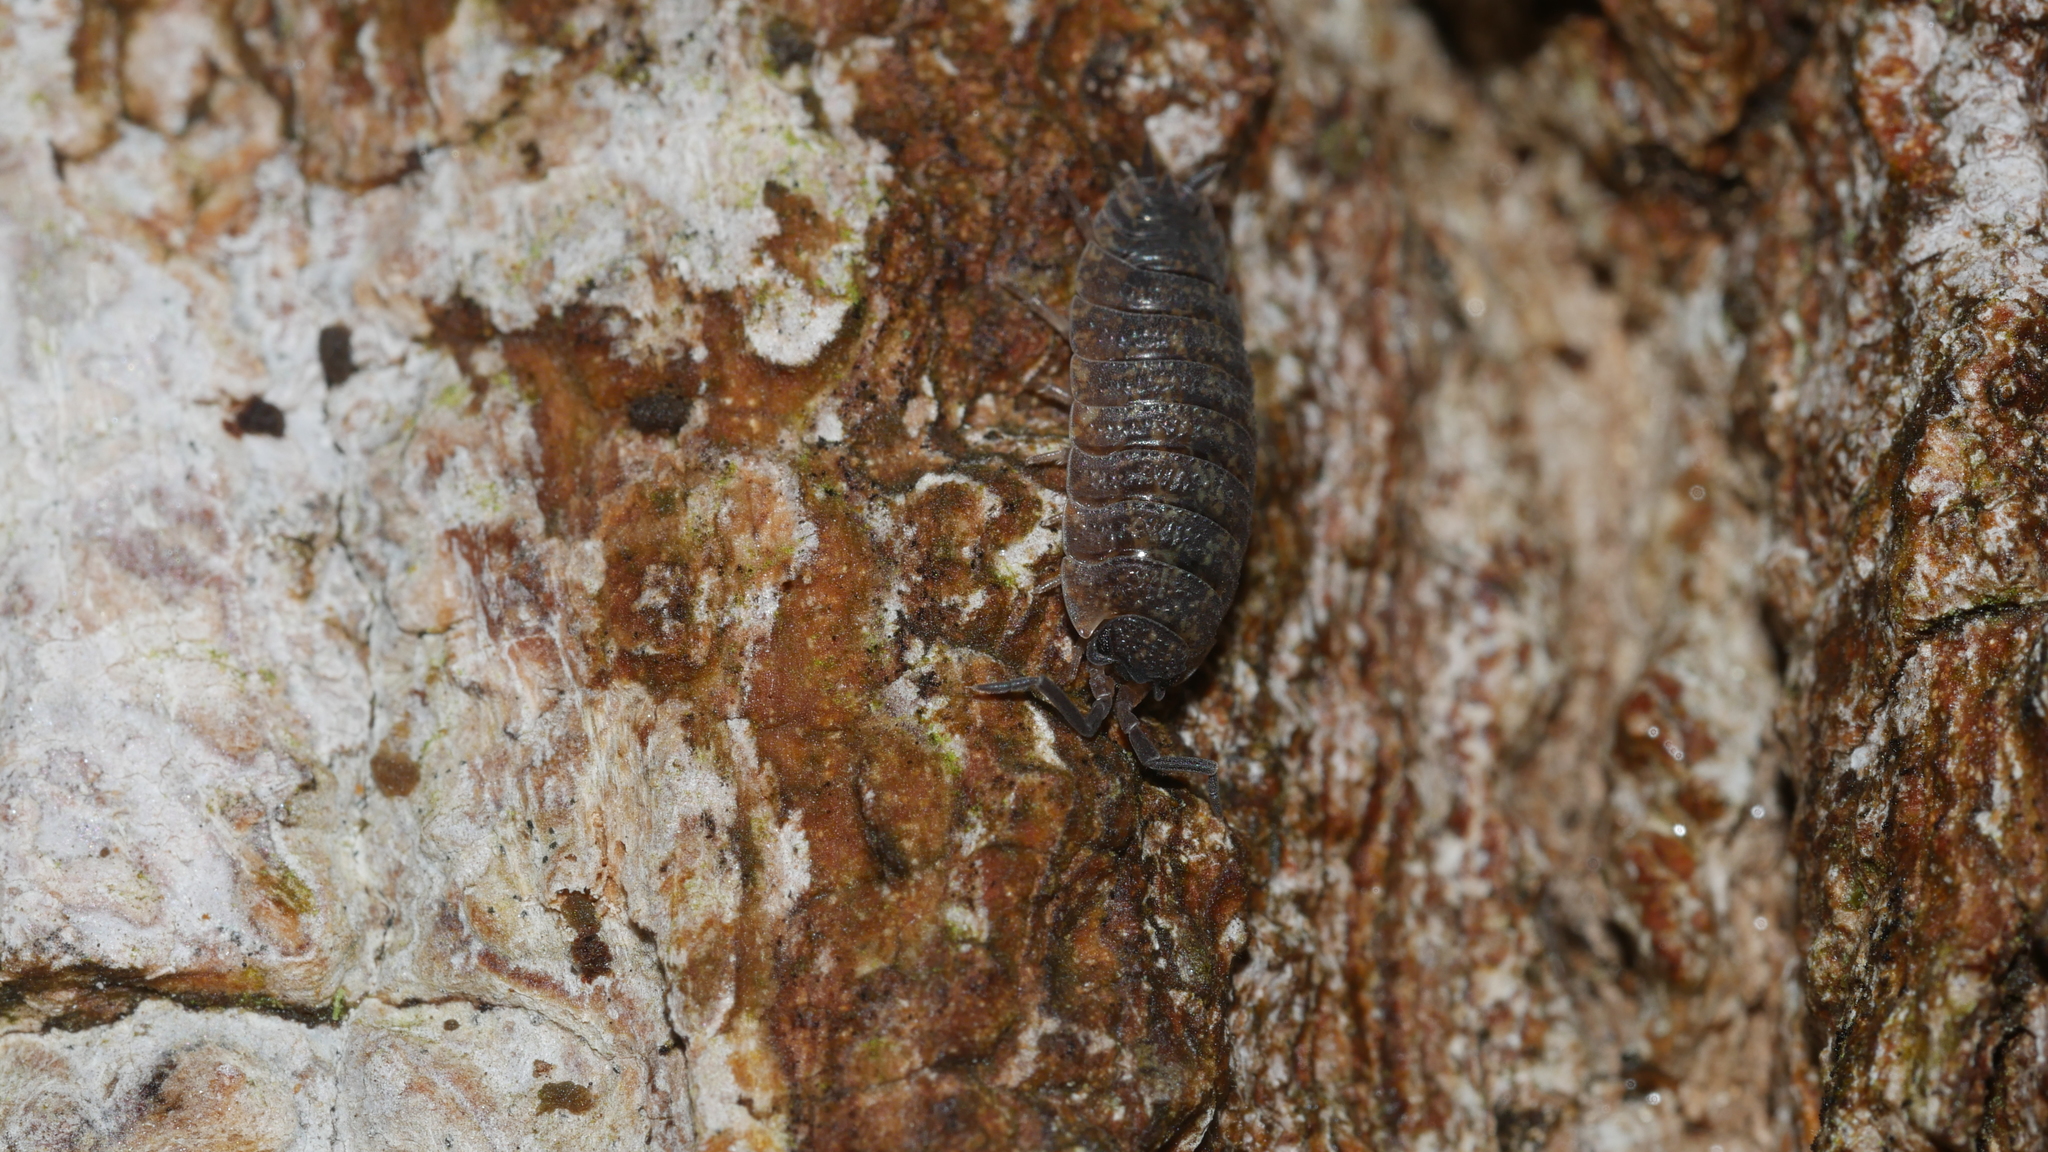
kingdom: Animalia
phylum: Arthropoda
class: Malacostraca
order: Isopoda
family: Porcellionidae
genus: Porcellio
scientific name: Porcellio scaber
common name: Common rough woodlouse
